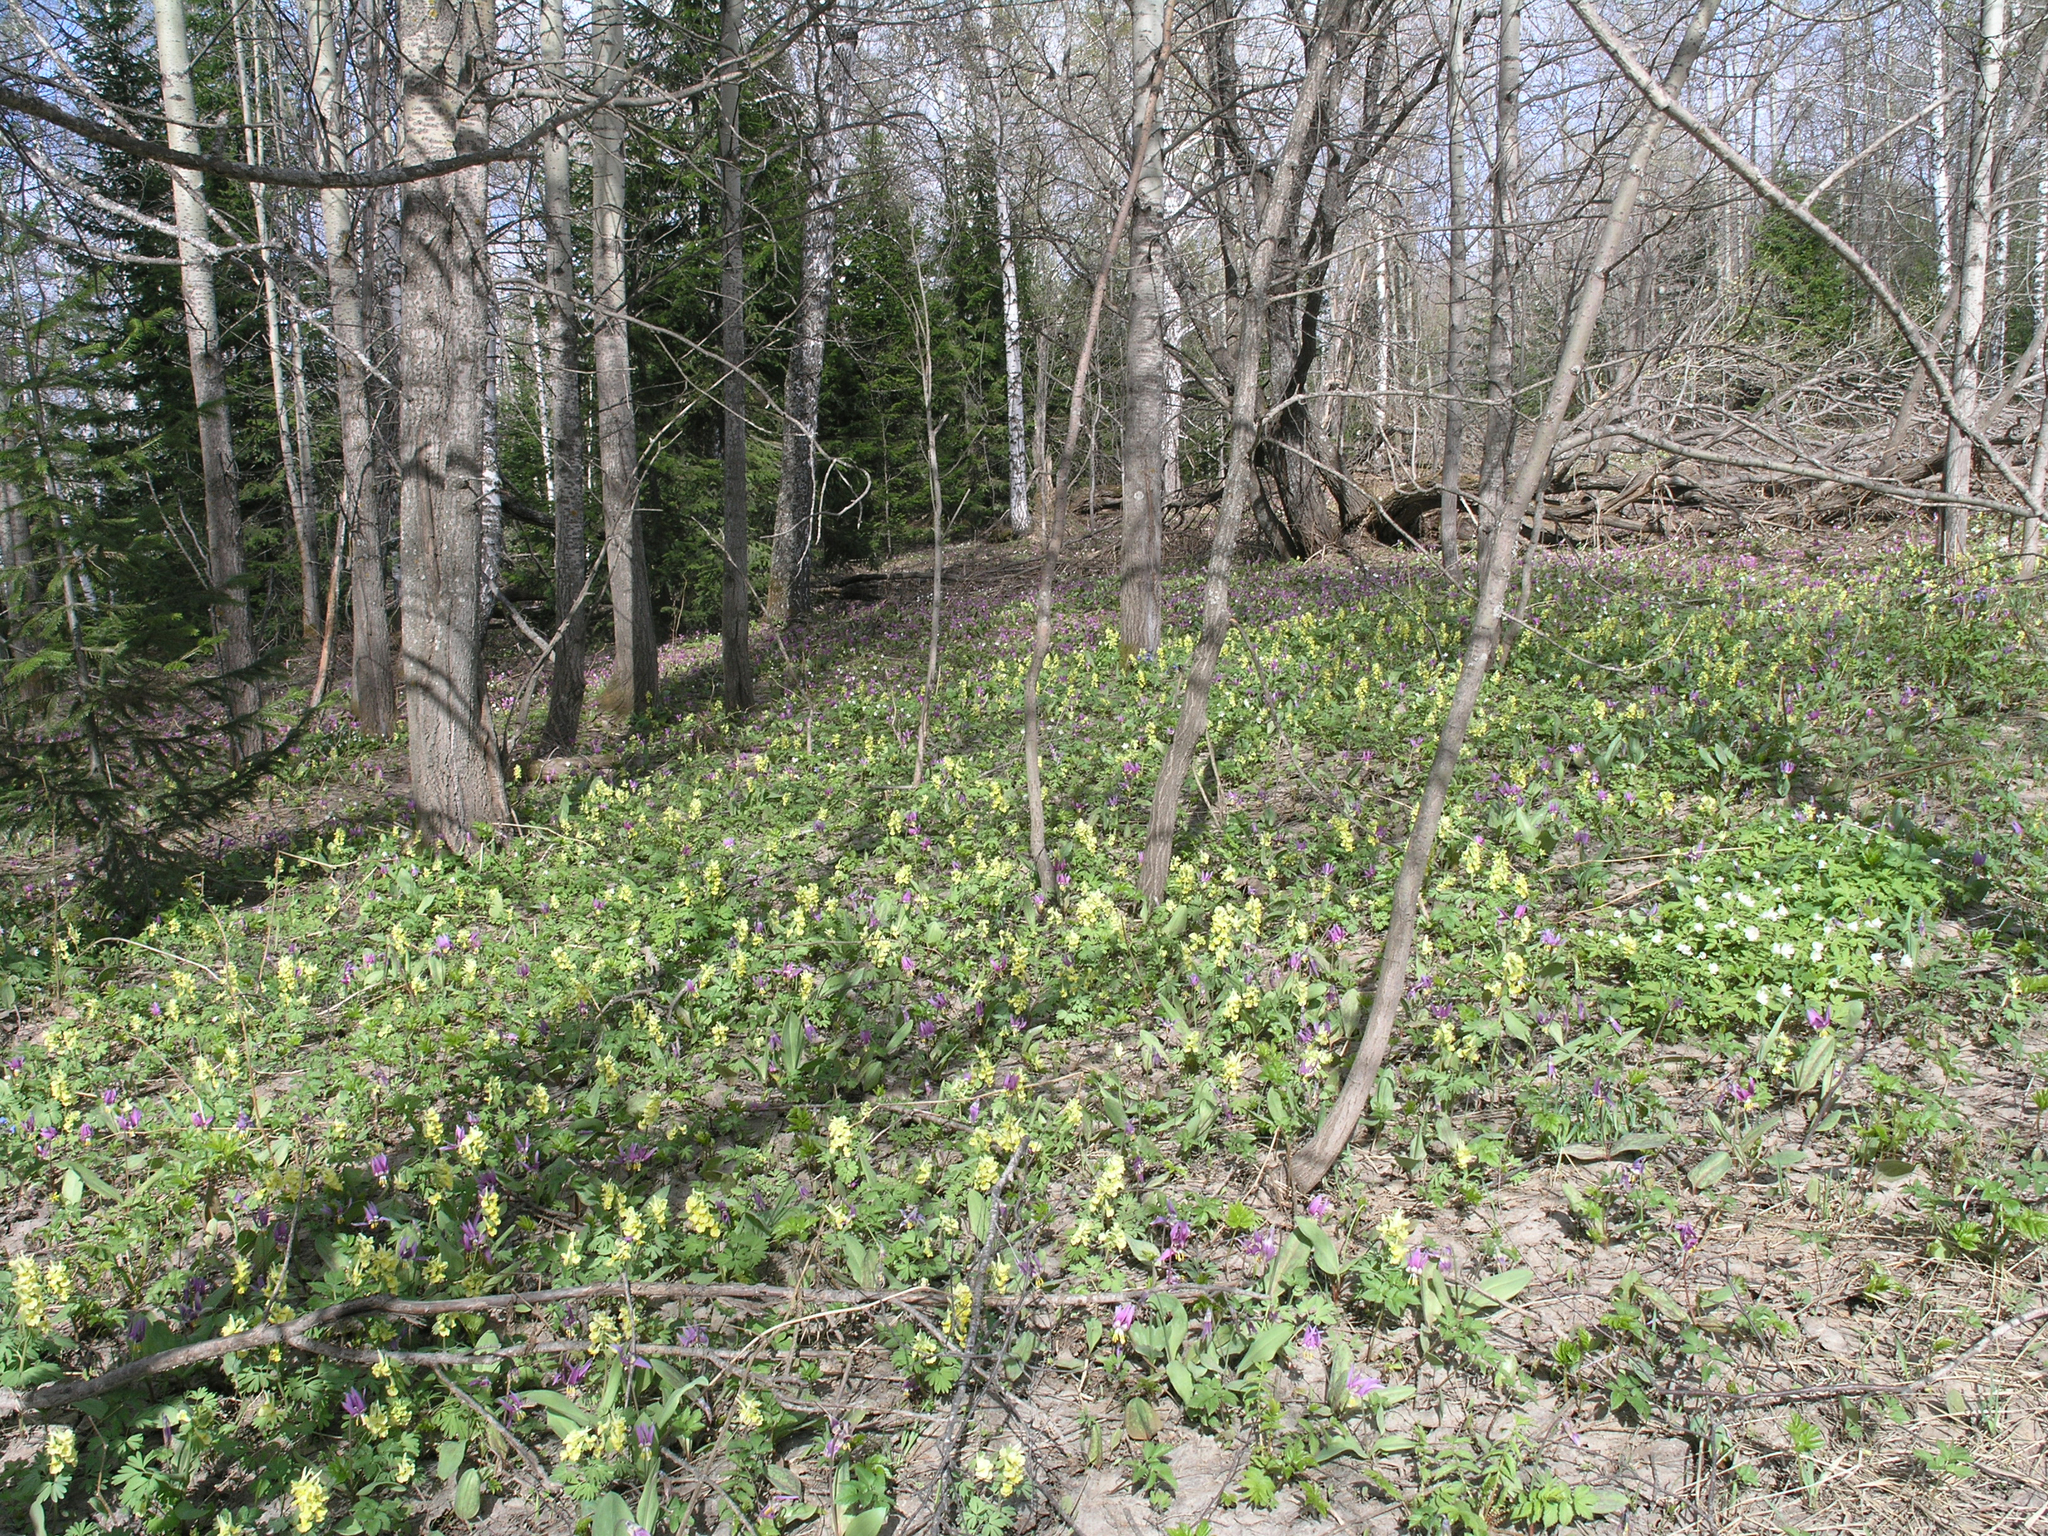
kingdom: Plantae
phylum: Tracheophyta
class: Magnoliopsida
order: Ranunculales
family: Papaveraceae
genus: Corydalis
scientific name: Corydalis bracteata
